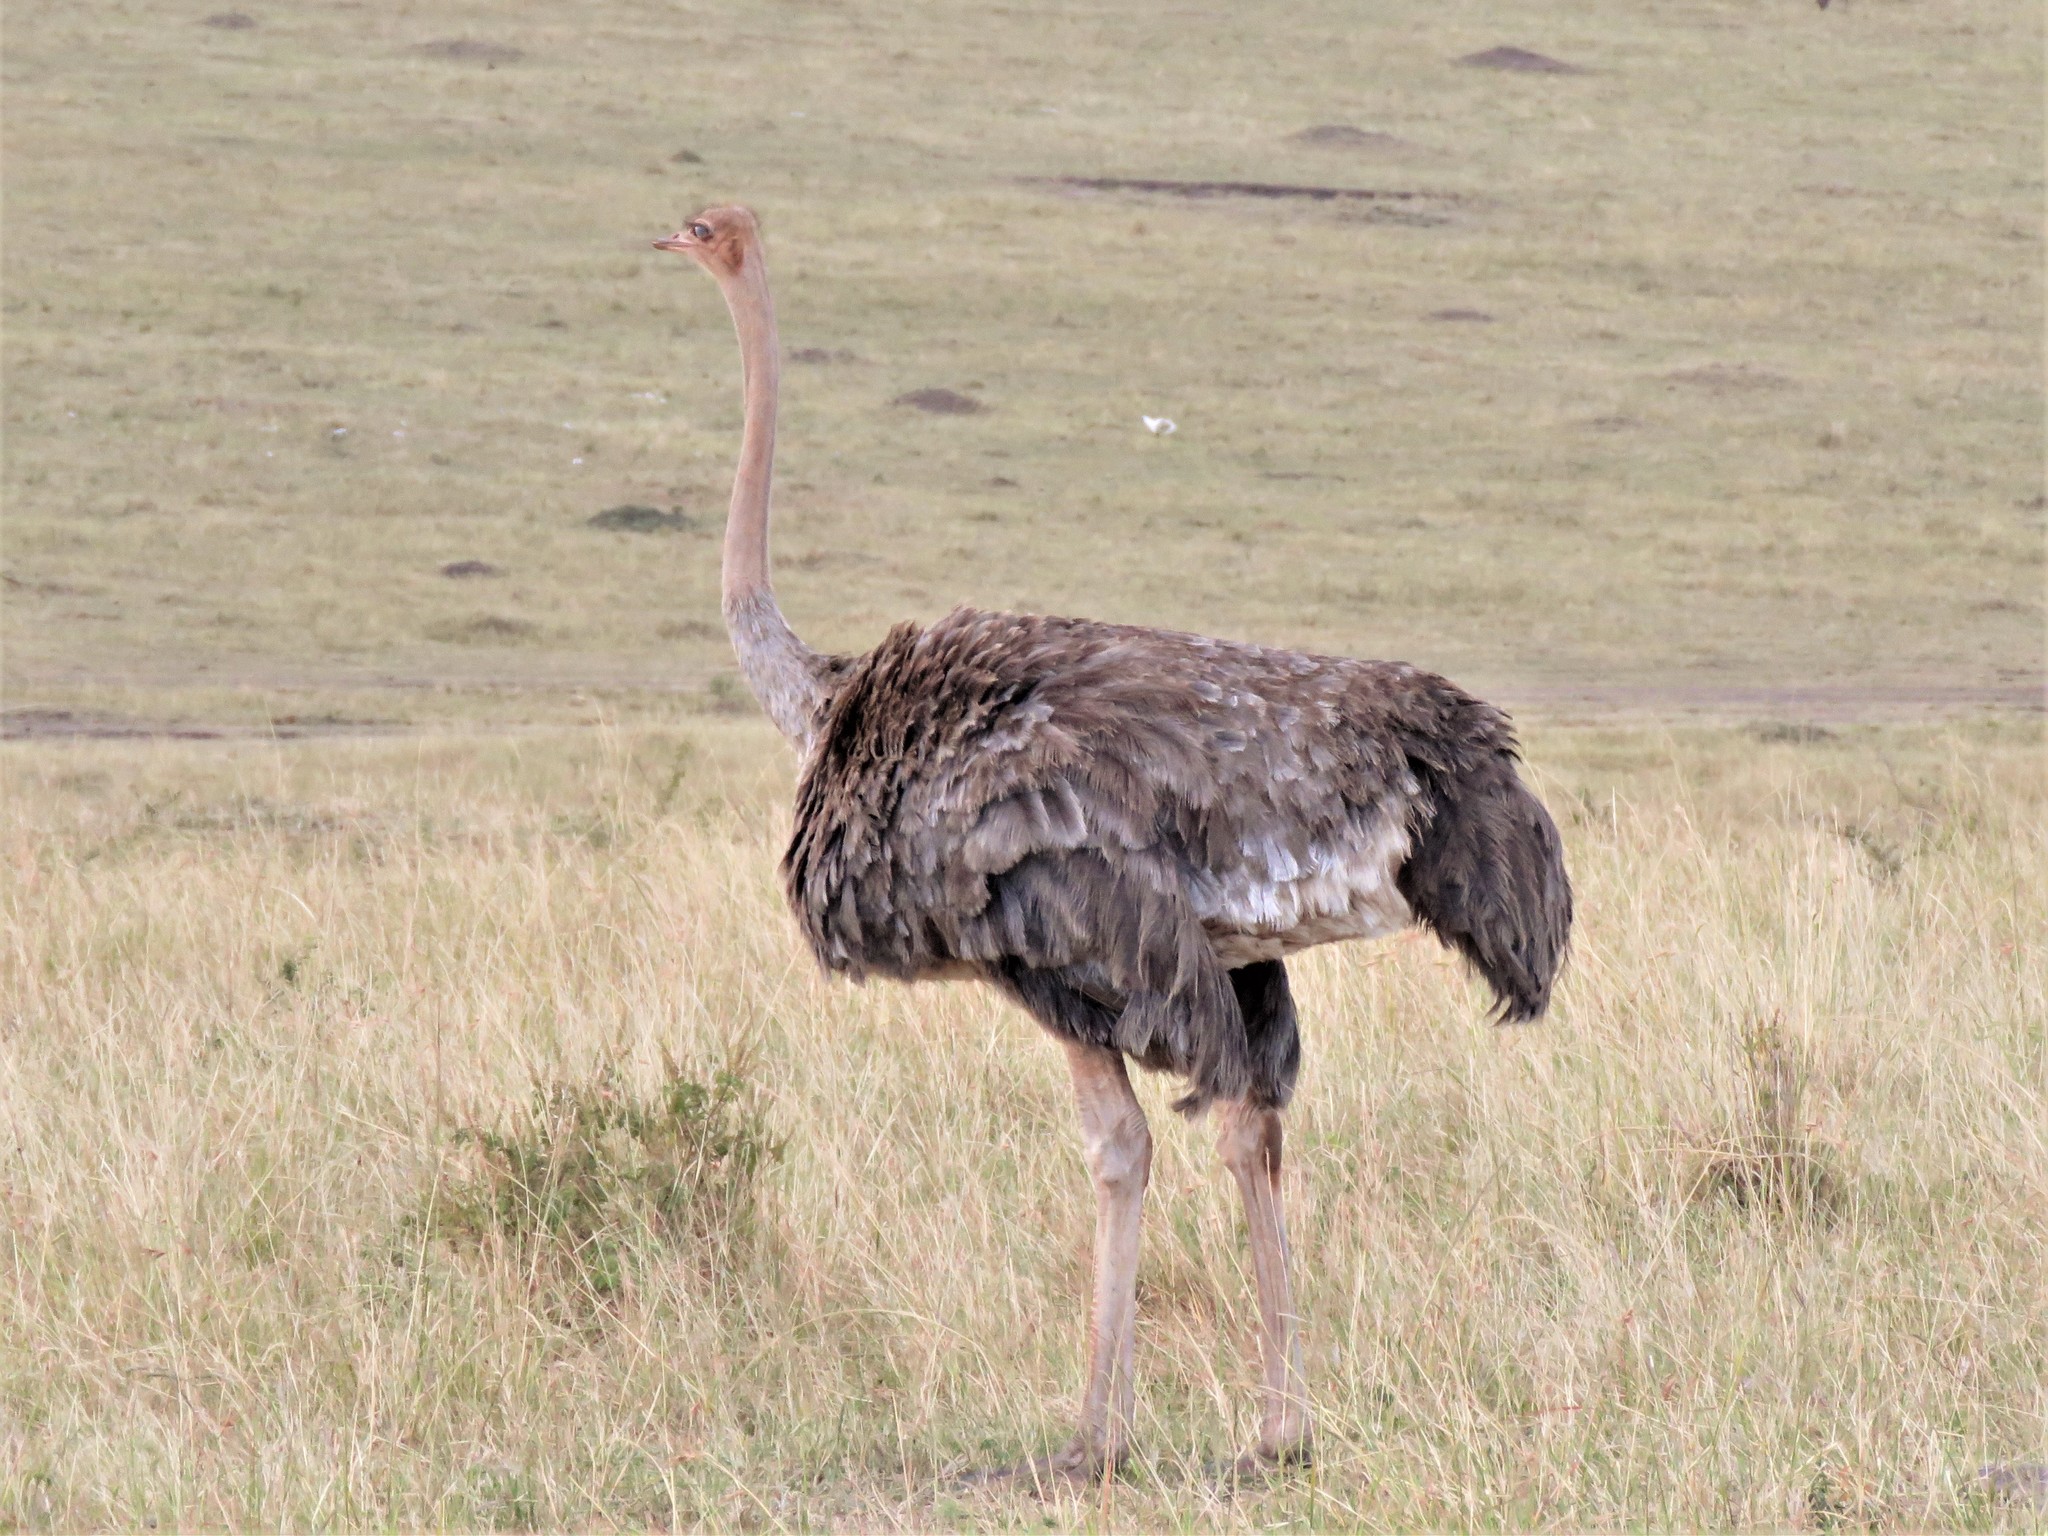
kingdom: Animalia
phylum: Chordata
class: Aves
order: Struthioniformes
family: Struthionidae
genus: Struthio
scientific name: Struthio camelus
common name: Common ostrich
